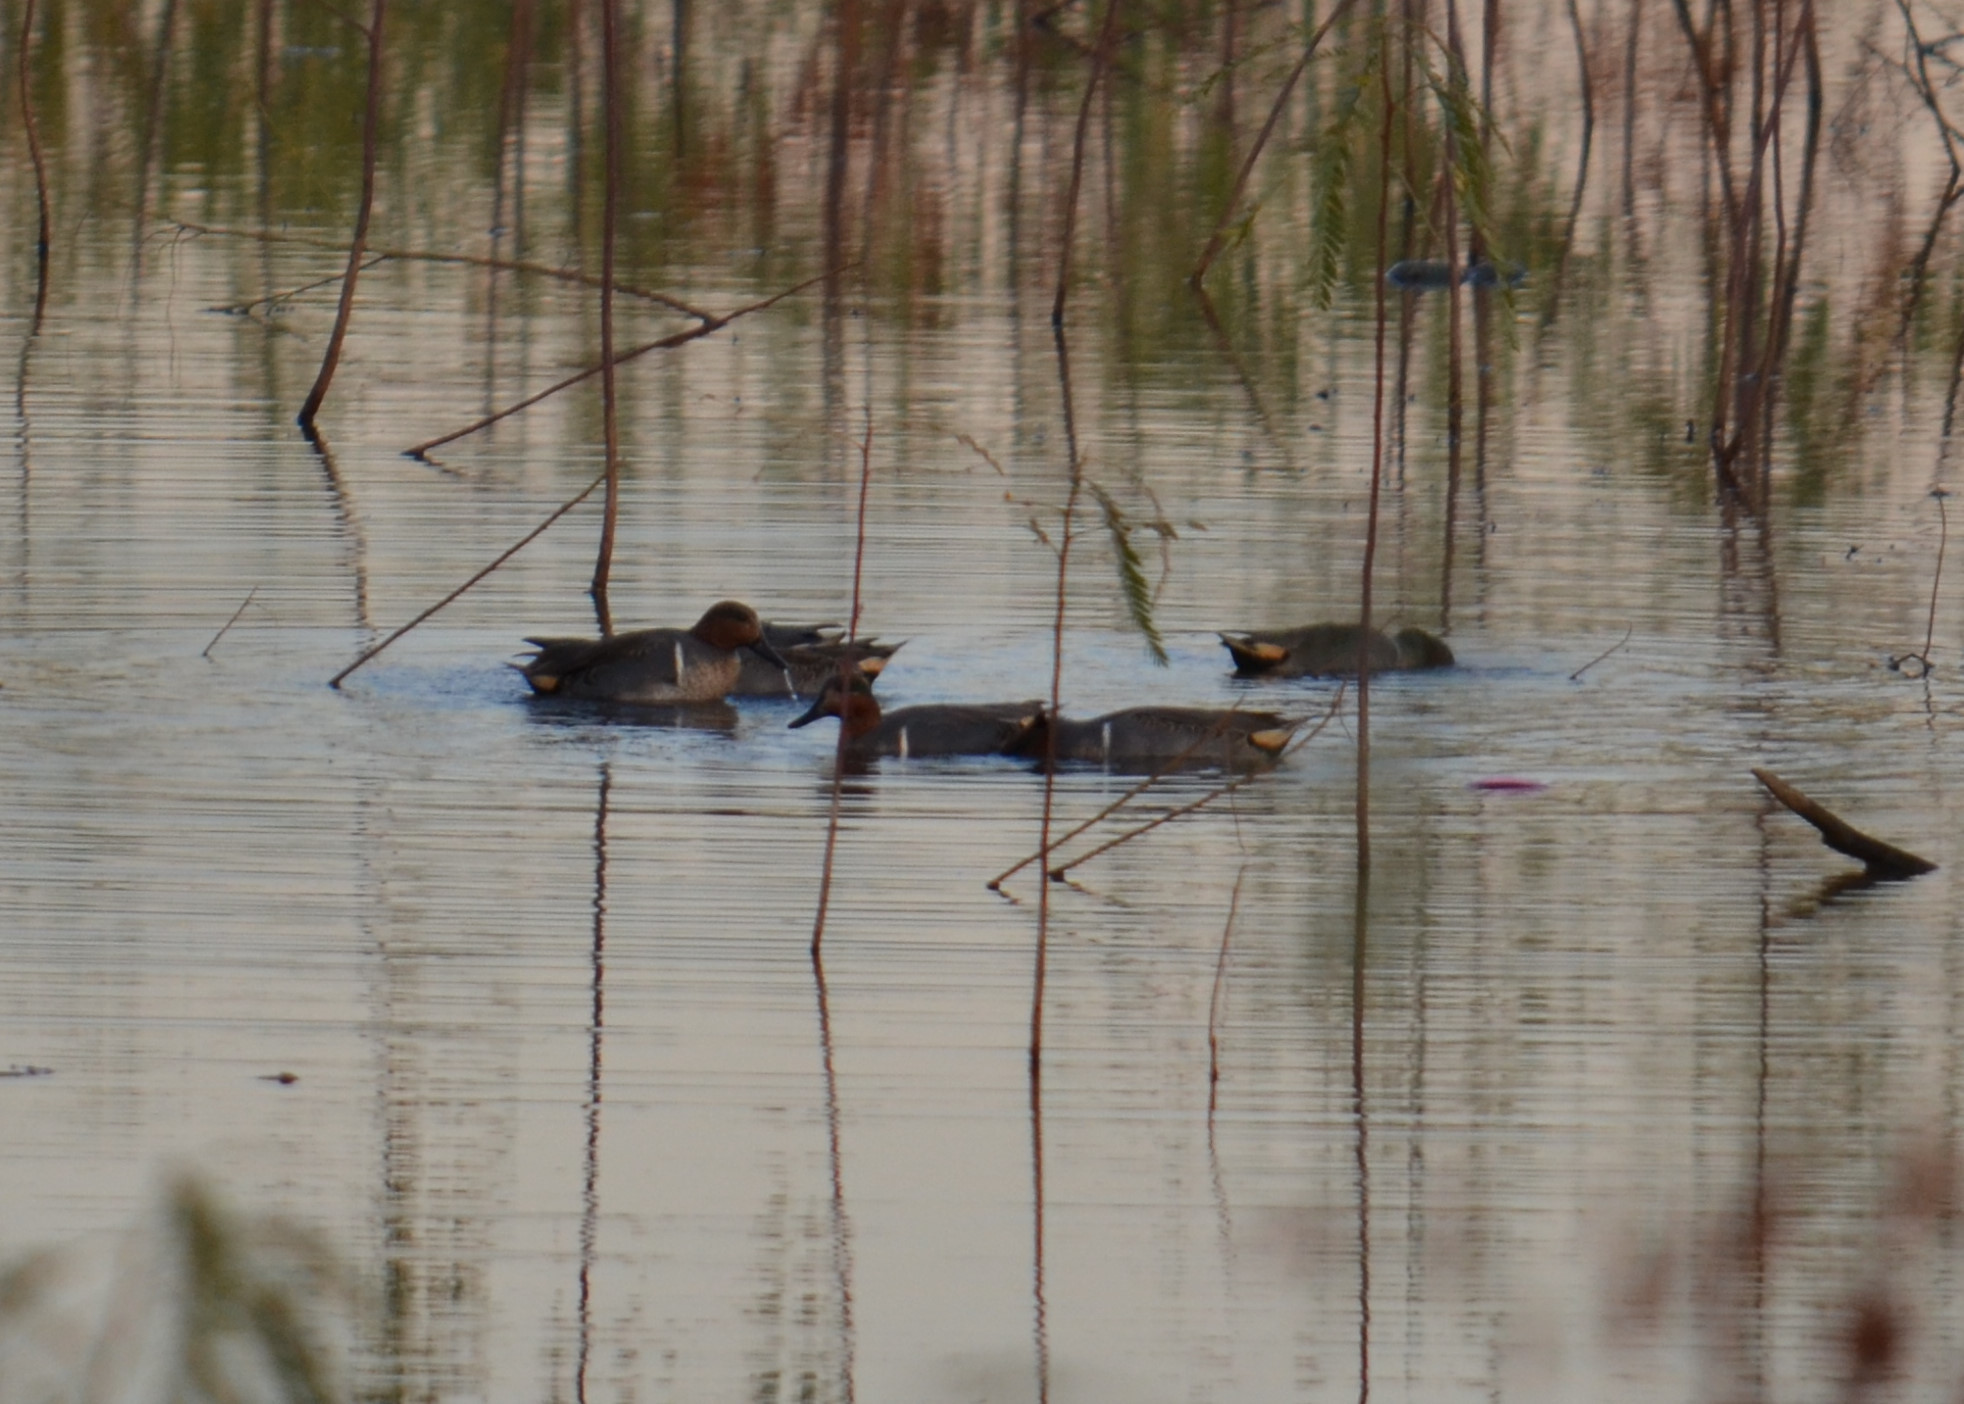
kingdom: Animalia
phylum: Chordata
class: Aves
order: Anseriformes
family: Anatidae
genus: Anas
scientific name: Anas crecca
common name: Eurasian teal
